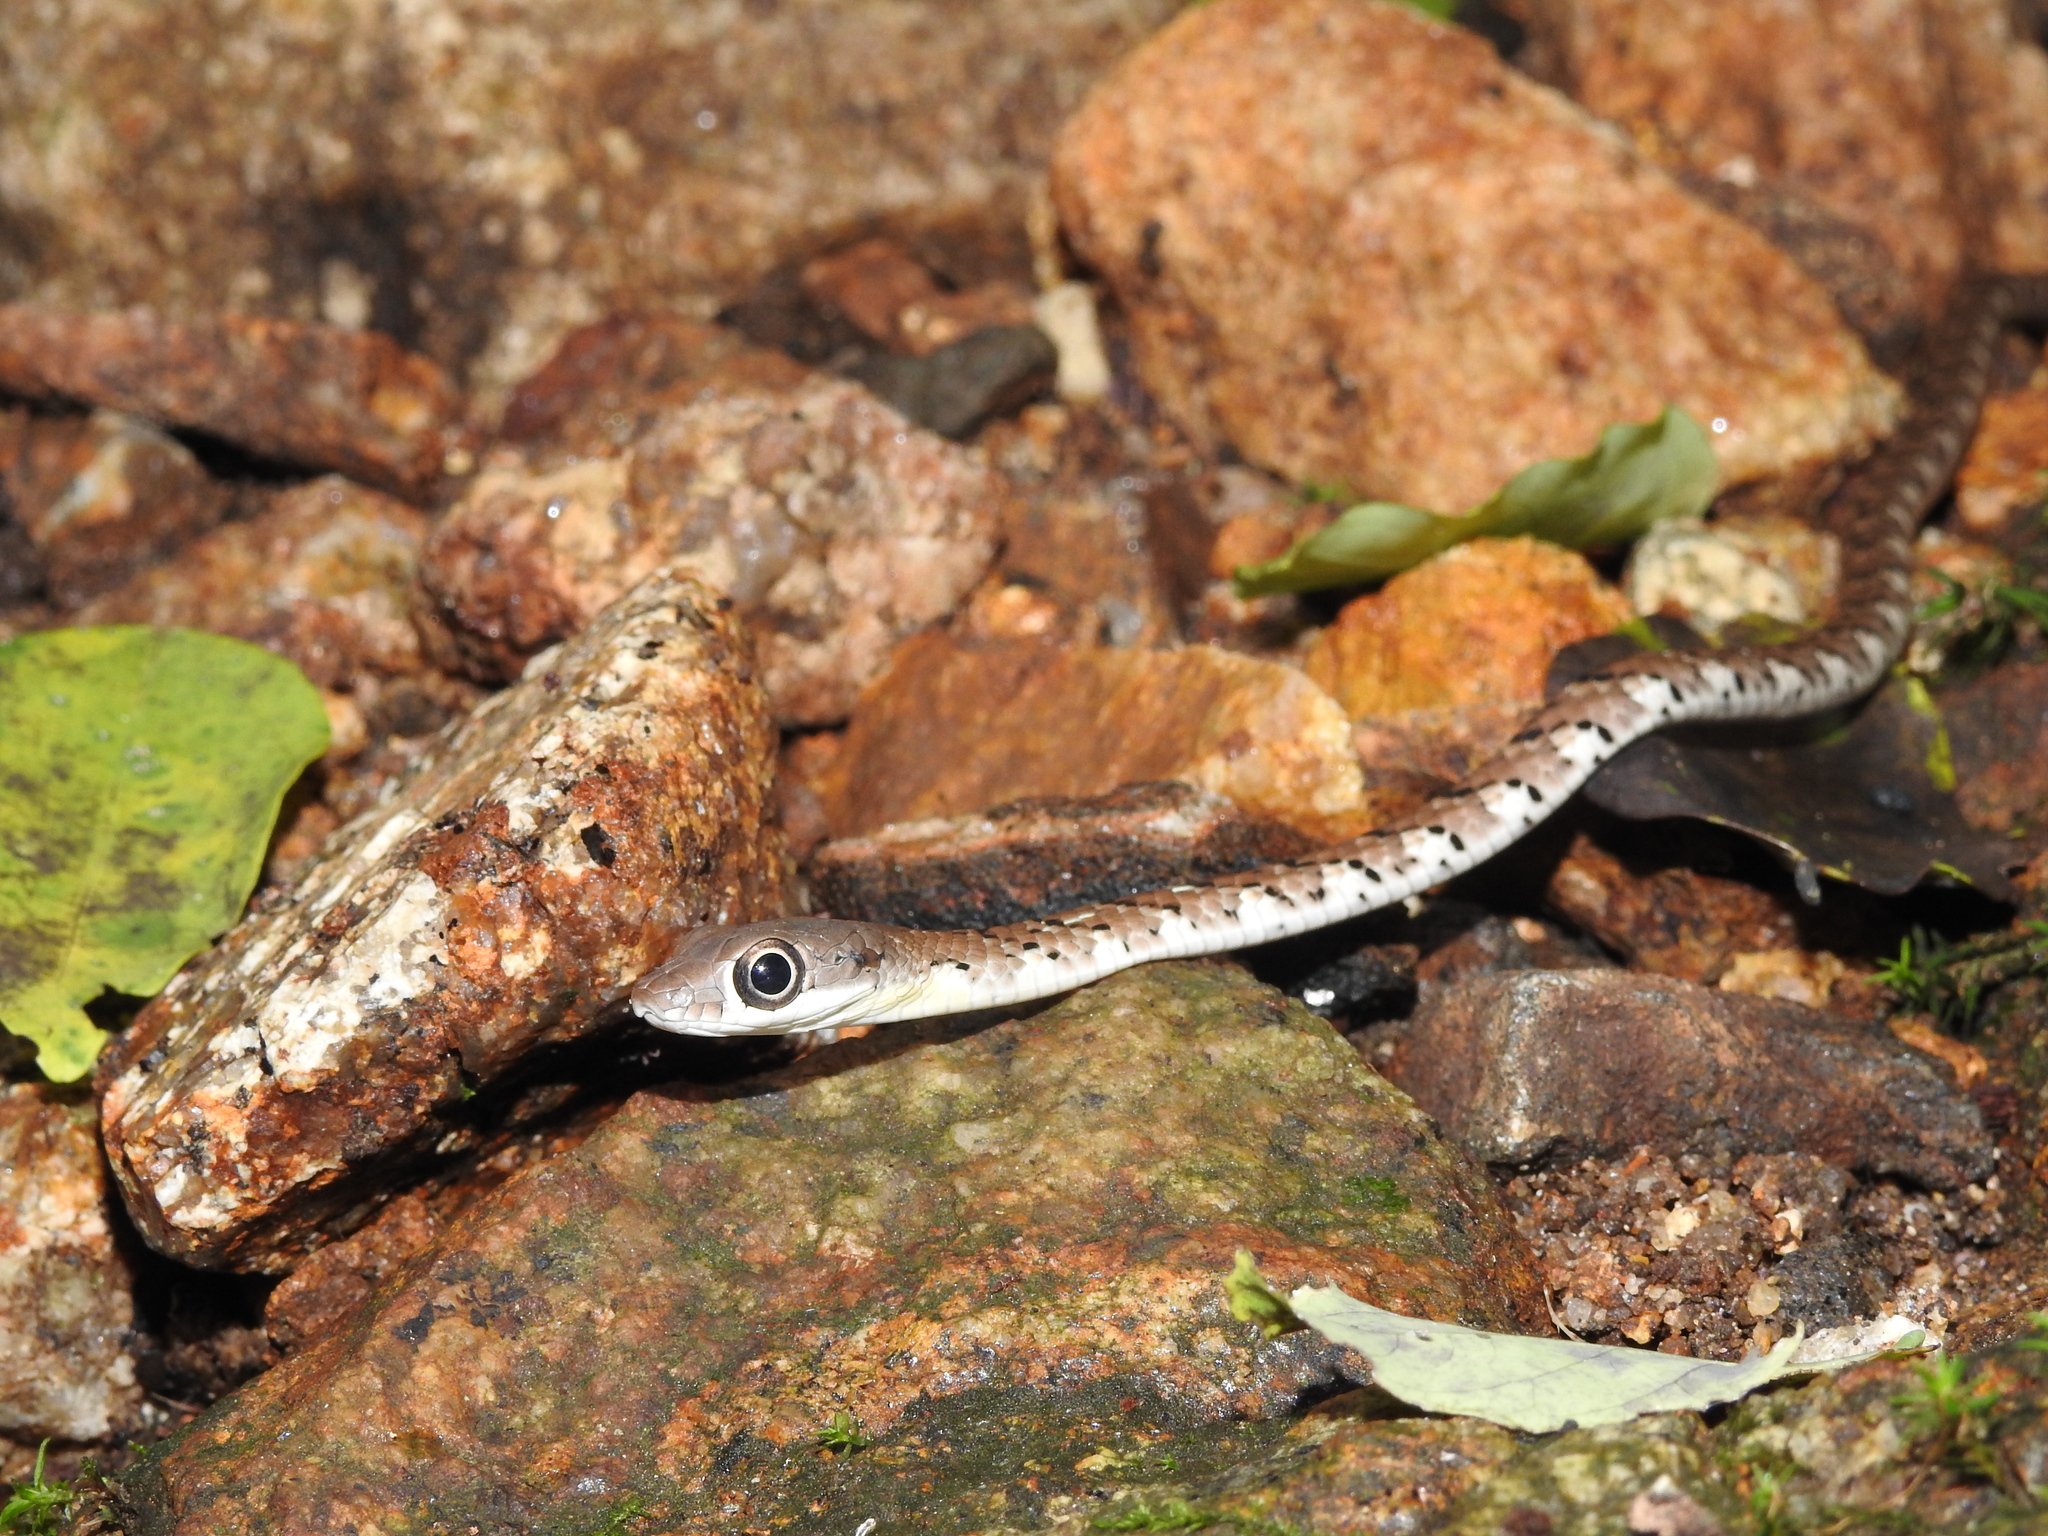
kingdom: Animalia
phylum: Chordata
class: Squamata
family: Colubridae
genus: Dendrelaphis
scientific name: Dendrelaphis grandoculis
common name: Southern bronzeback
